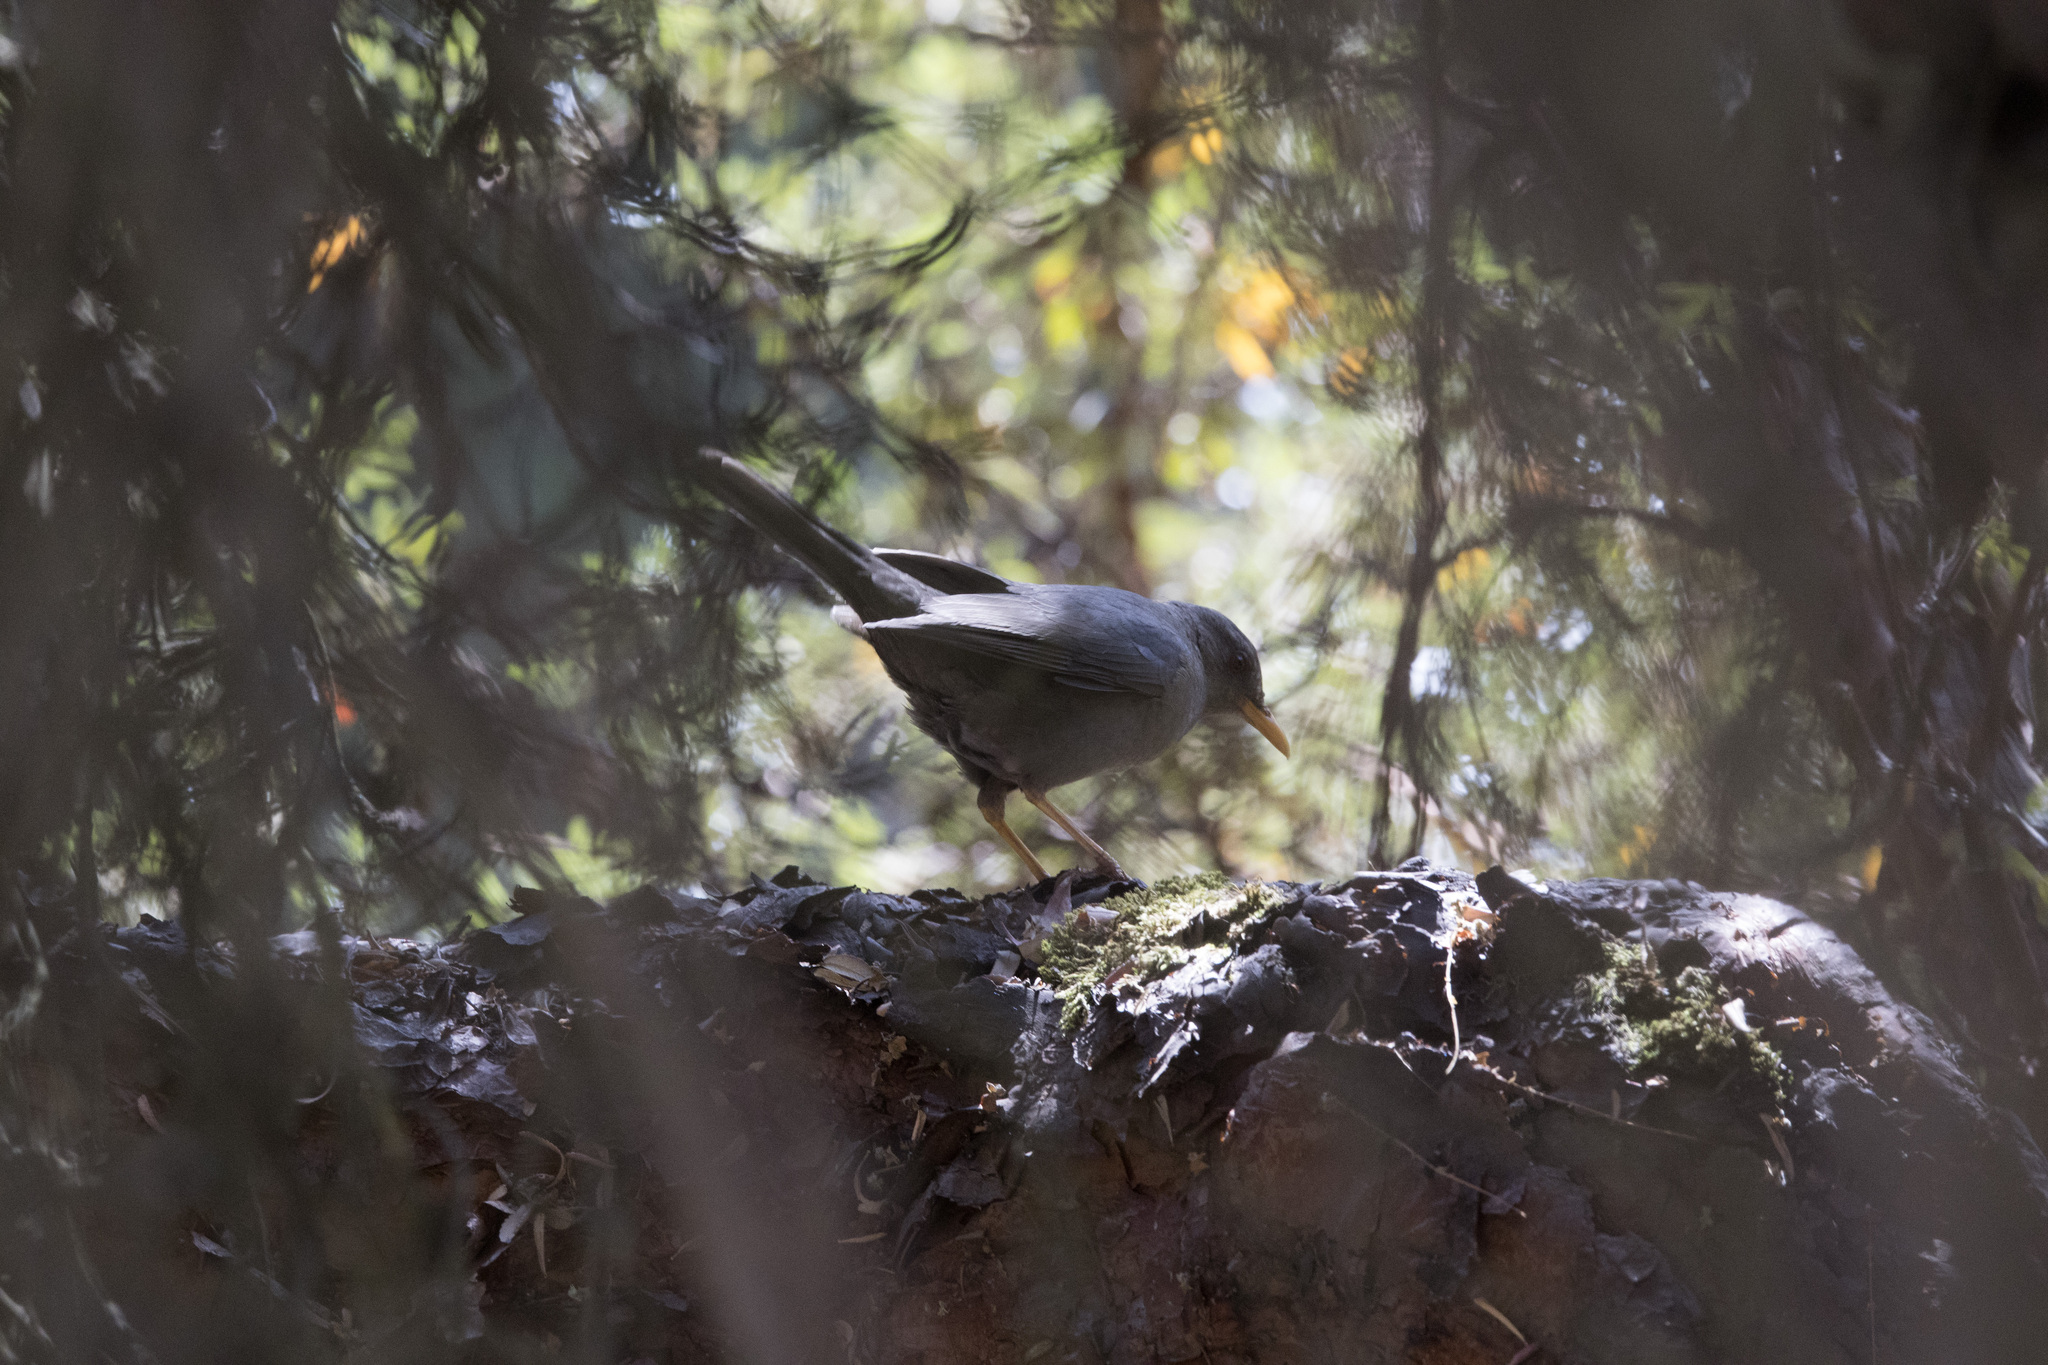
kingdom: Animalia
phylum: Chordata
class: Aves
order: Passeriformes
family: Turdidae
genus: Turdus
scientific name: Turdus chiguanco
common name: Chiguanco thrush
